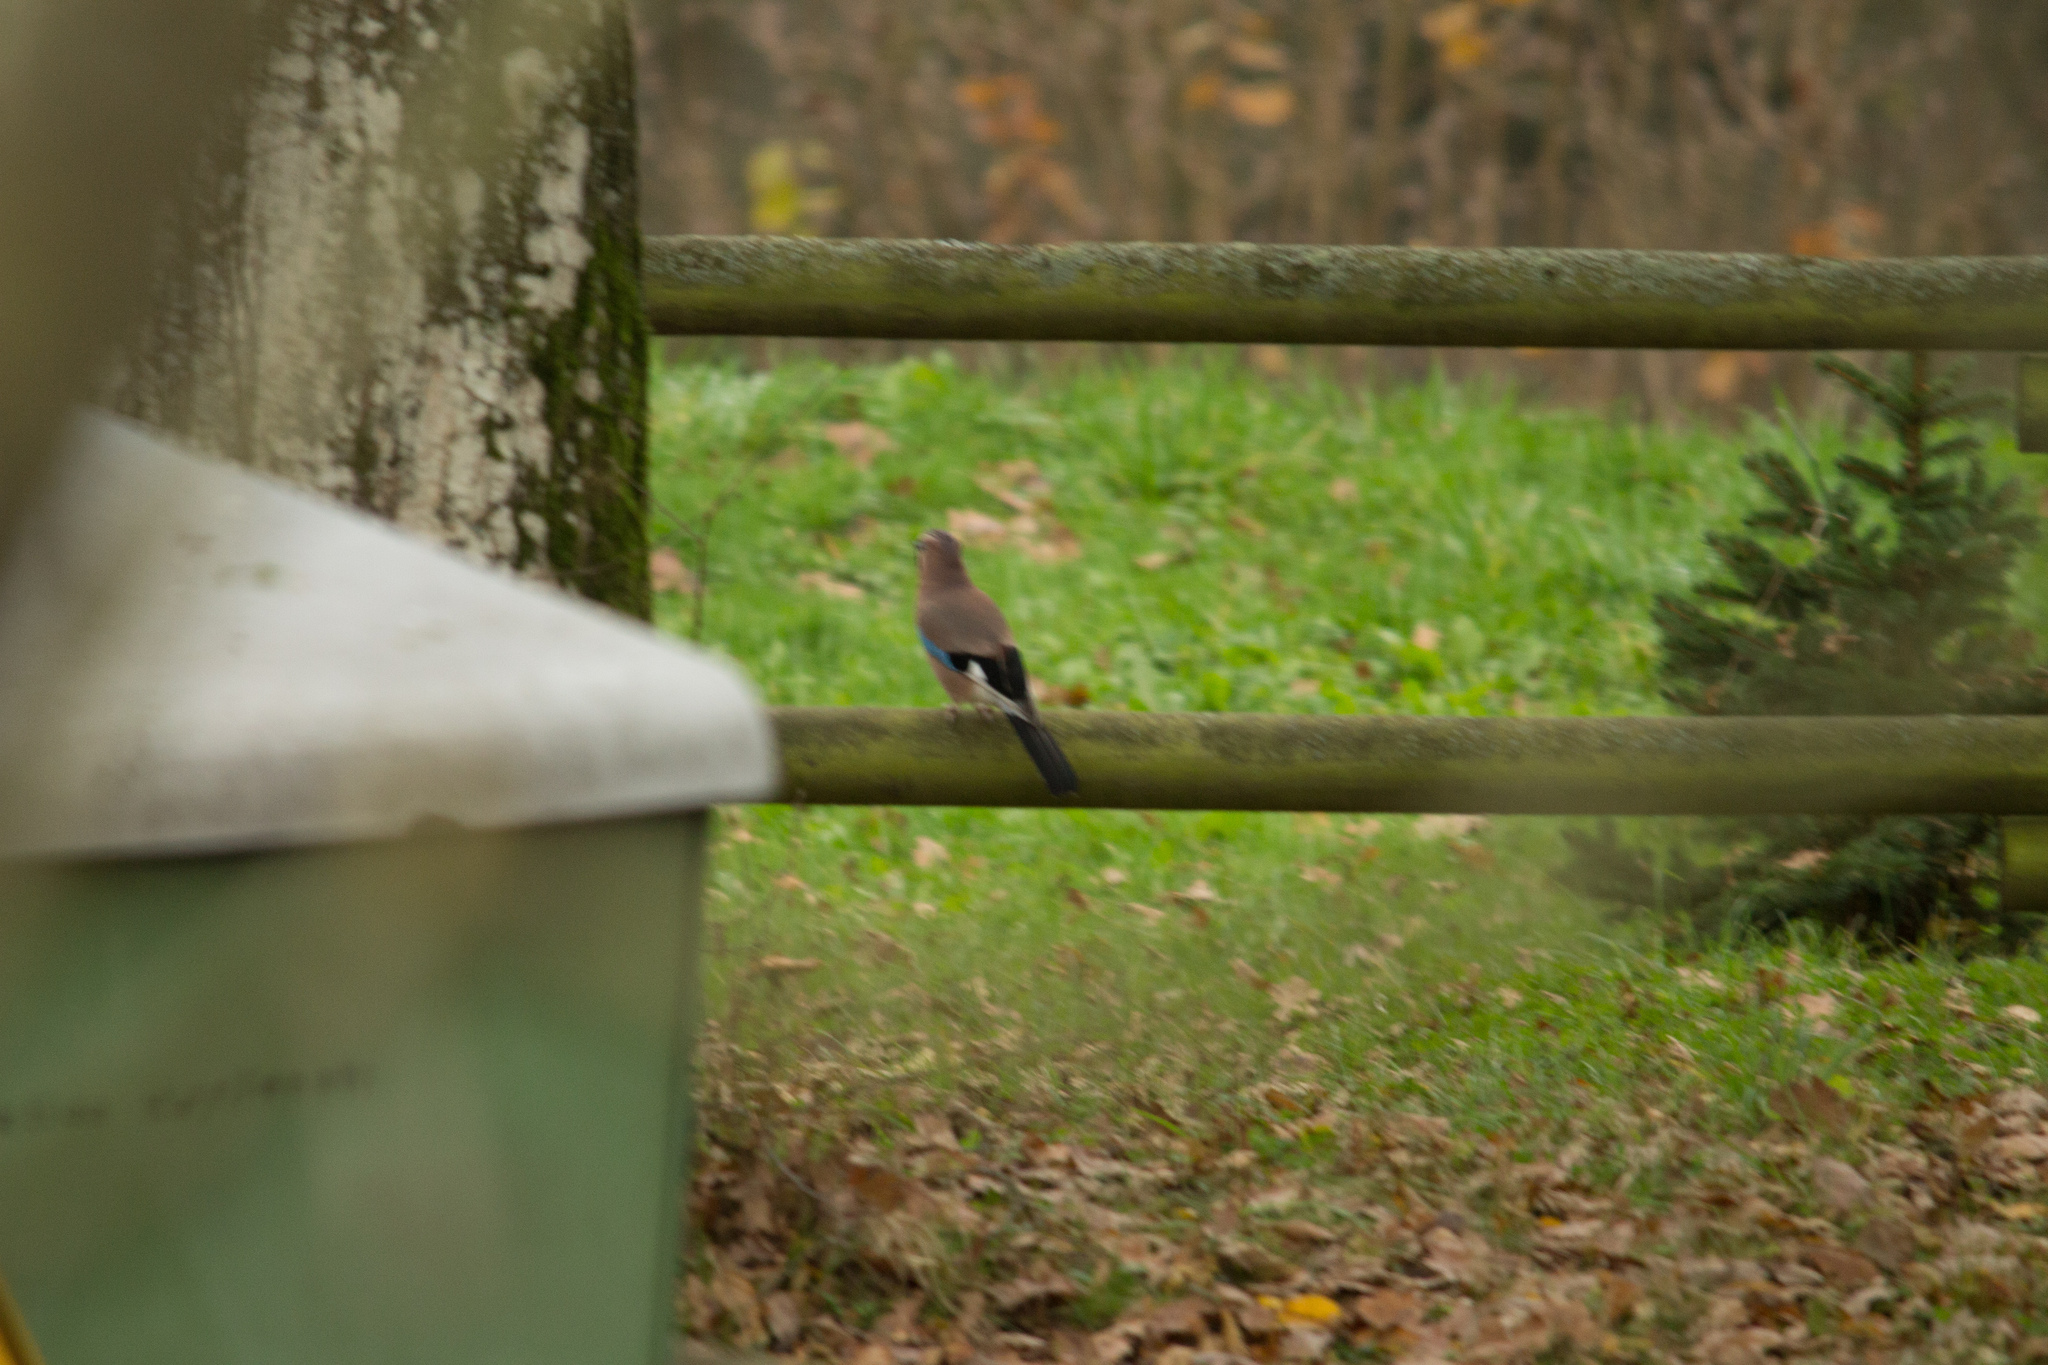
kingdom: Animalia
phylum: Chordata
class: Aves
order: Passeriformes
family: Corvidae
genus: Garrulus
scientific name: Garrulus glandarius
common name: Eurasian jay
